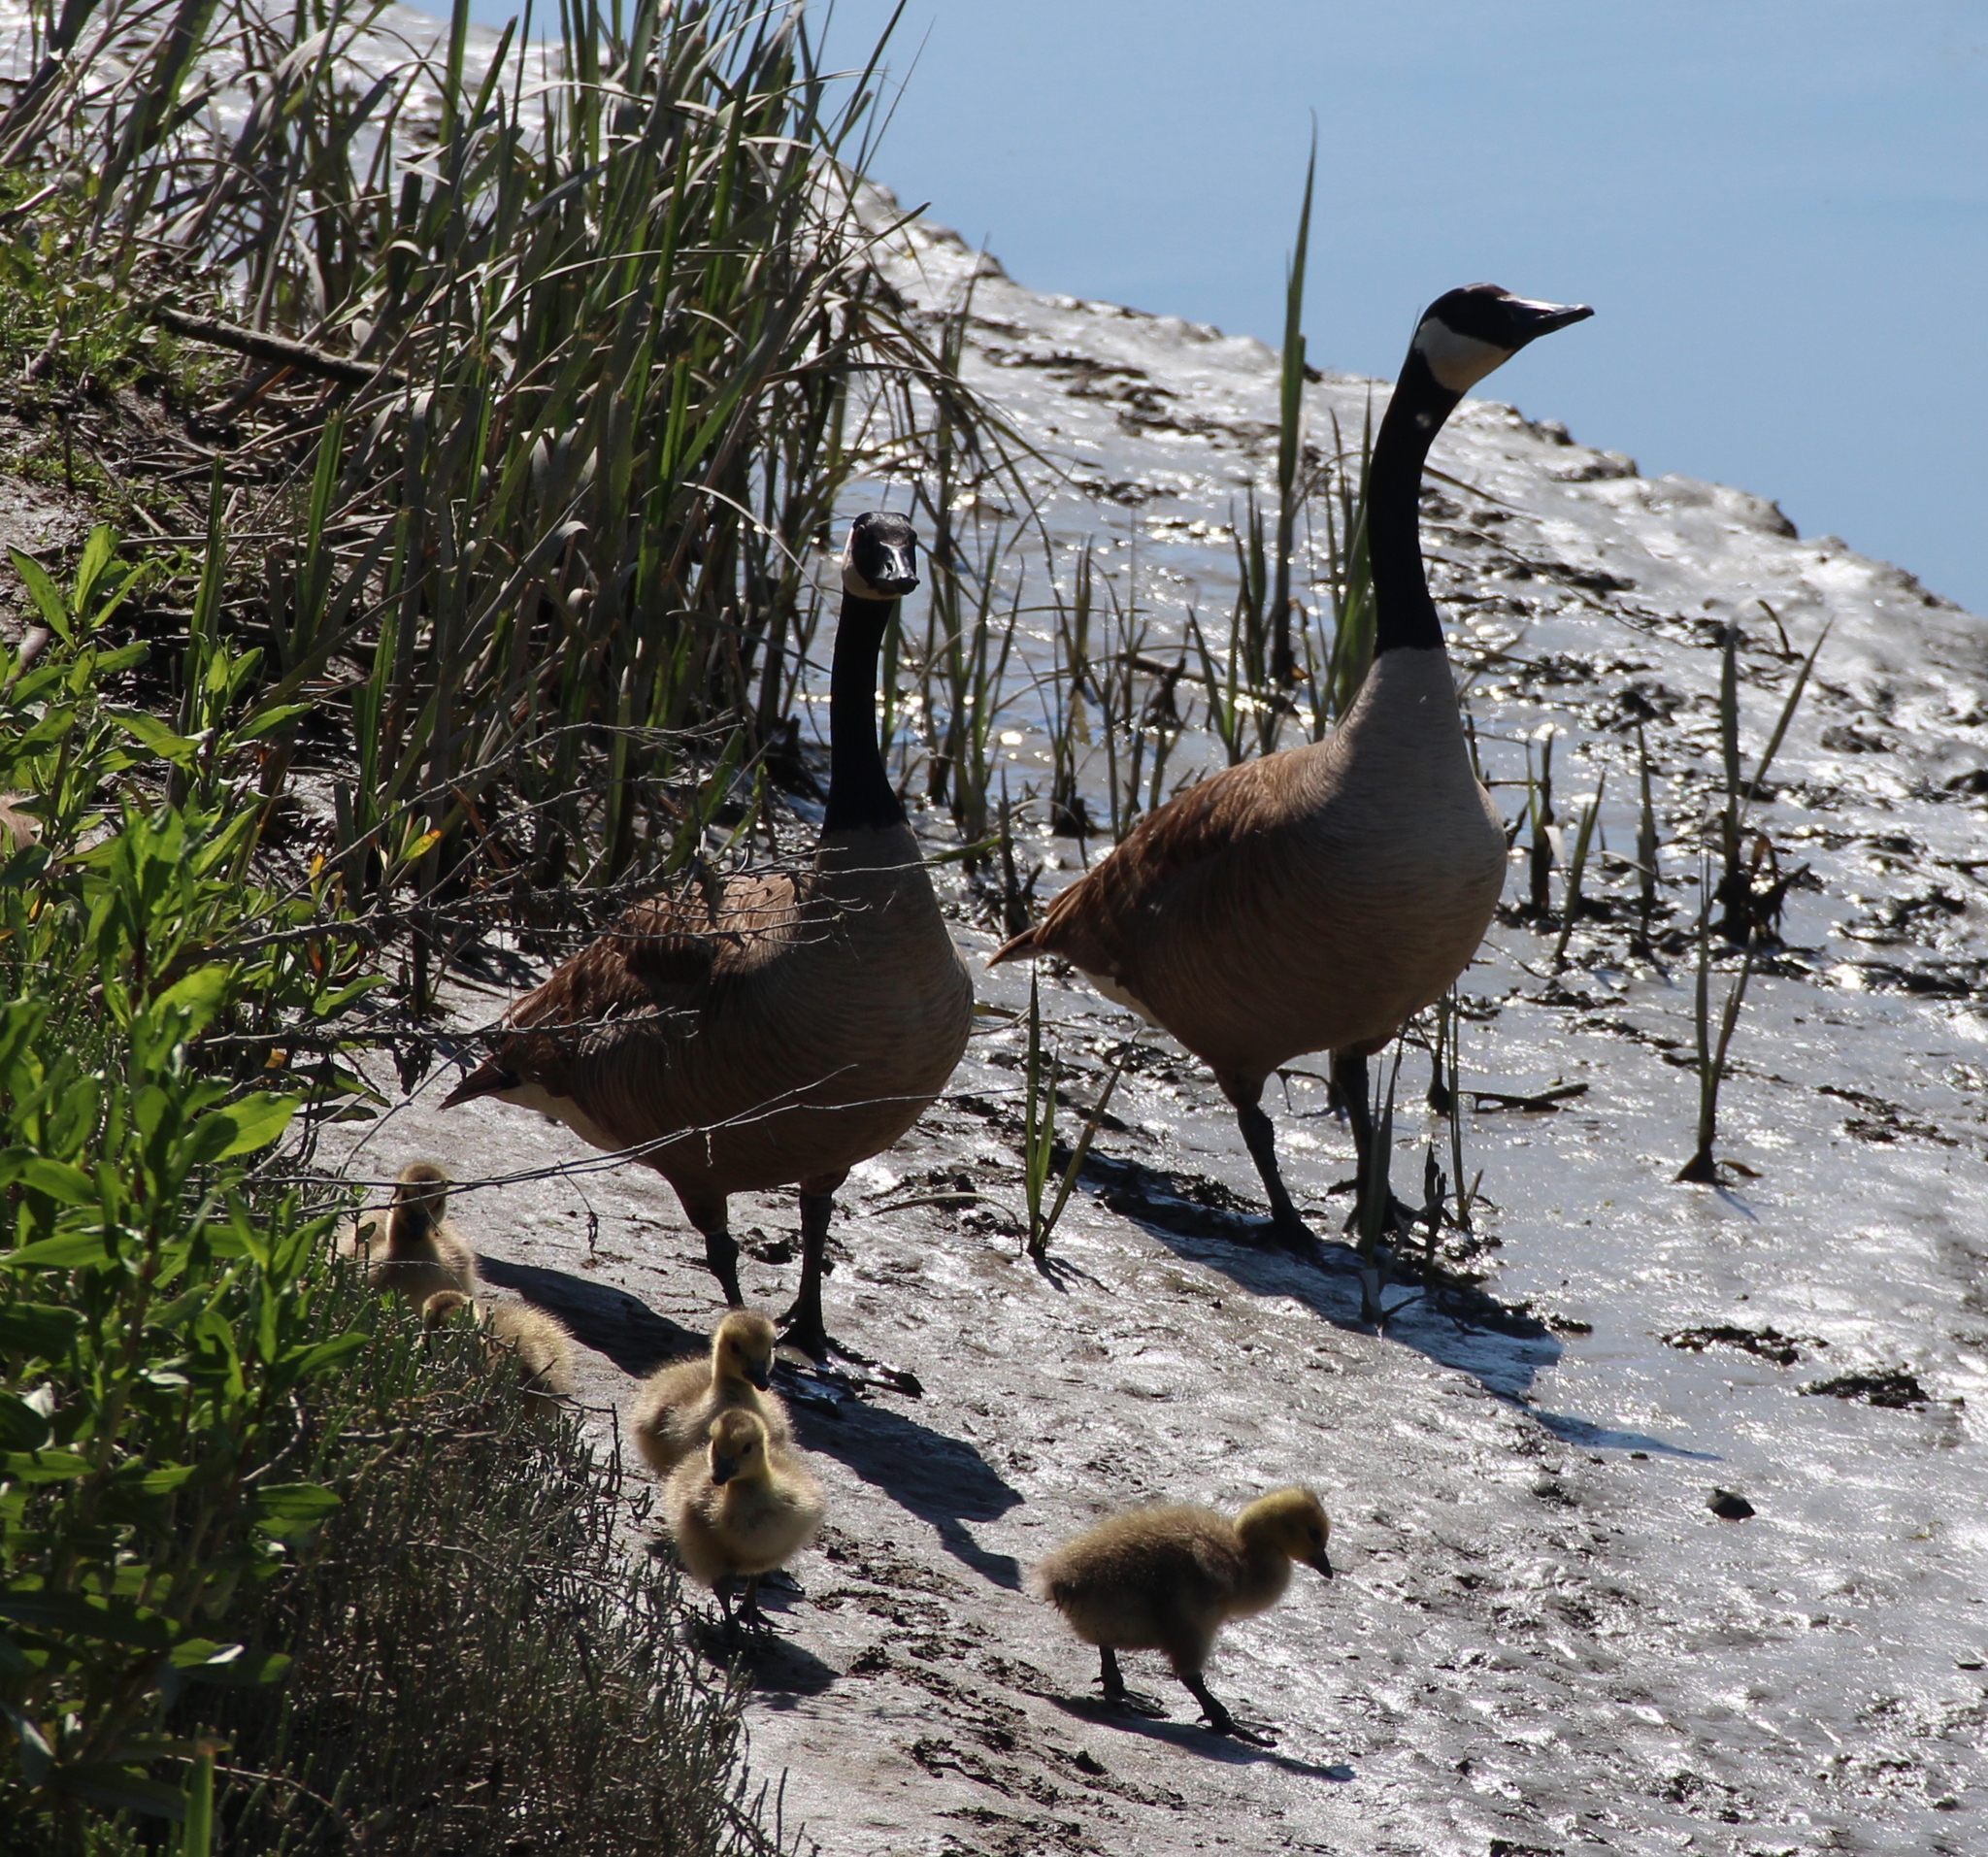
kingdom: Animalia
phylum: Chordata
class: Aves
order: Anseriformes
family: Anatidae
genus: Branta
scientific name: Branta canadensis
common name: Canada goose
